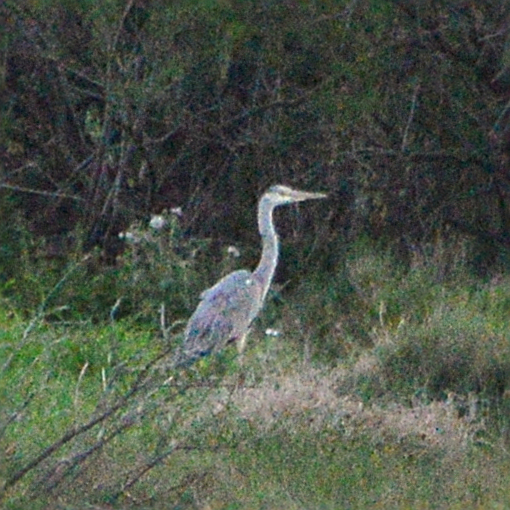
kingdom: Animalia
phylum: Chordata
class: Aves
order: Pelecaniformes
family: Ardeidae
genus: Ardea
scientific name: Ardea cinerea
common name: Grey heron
